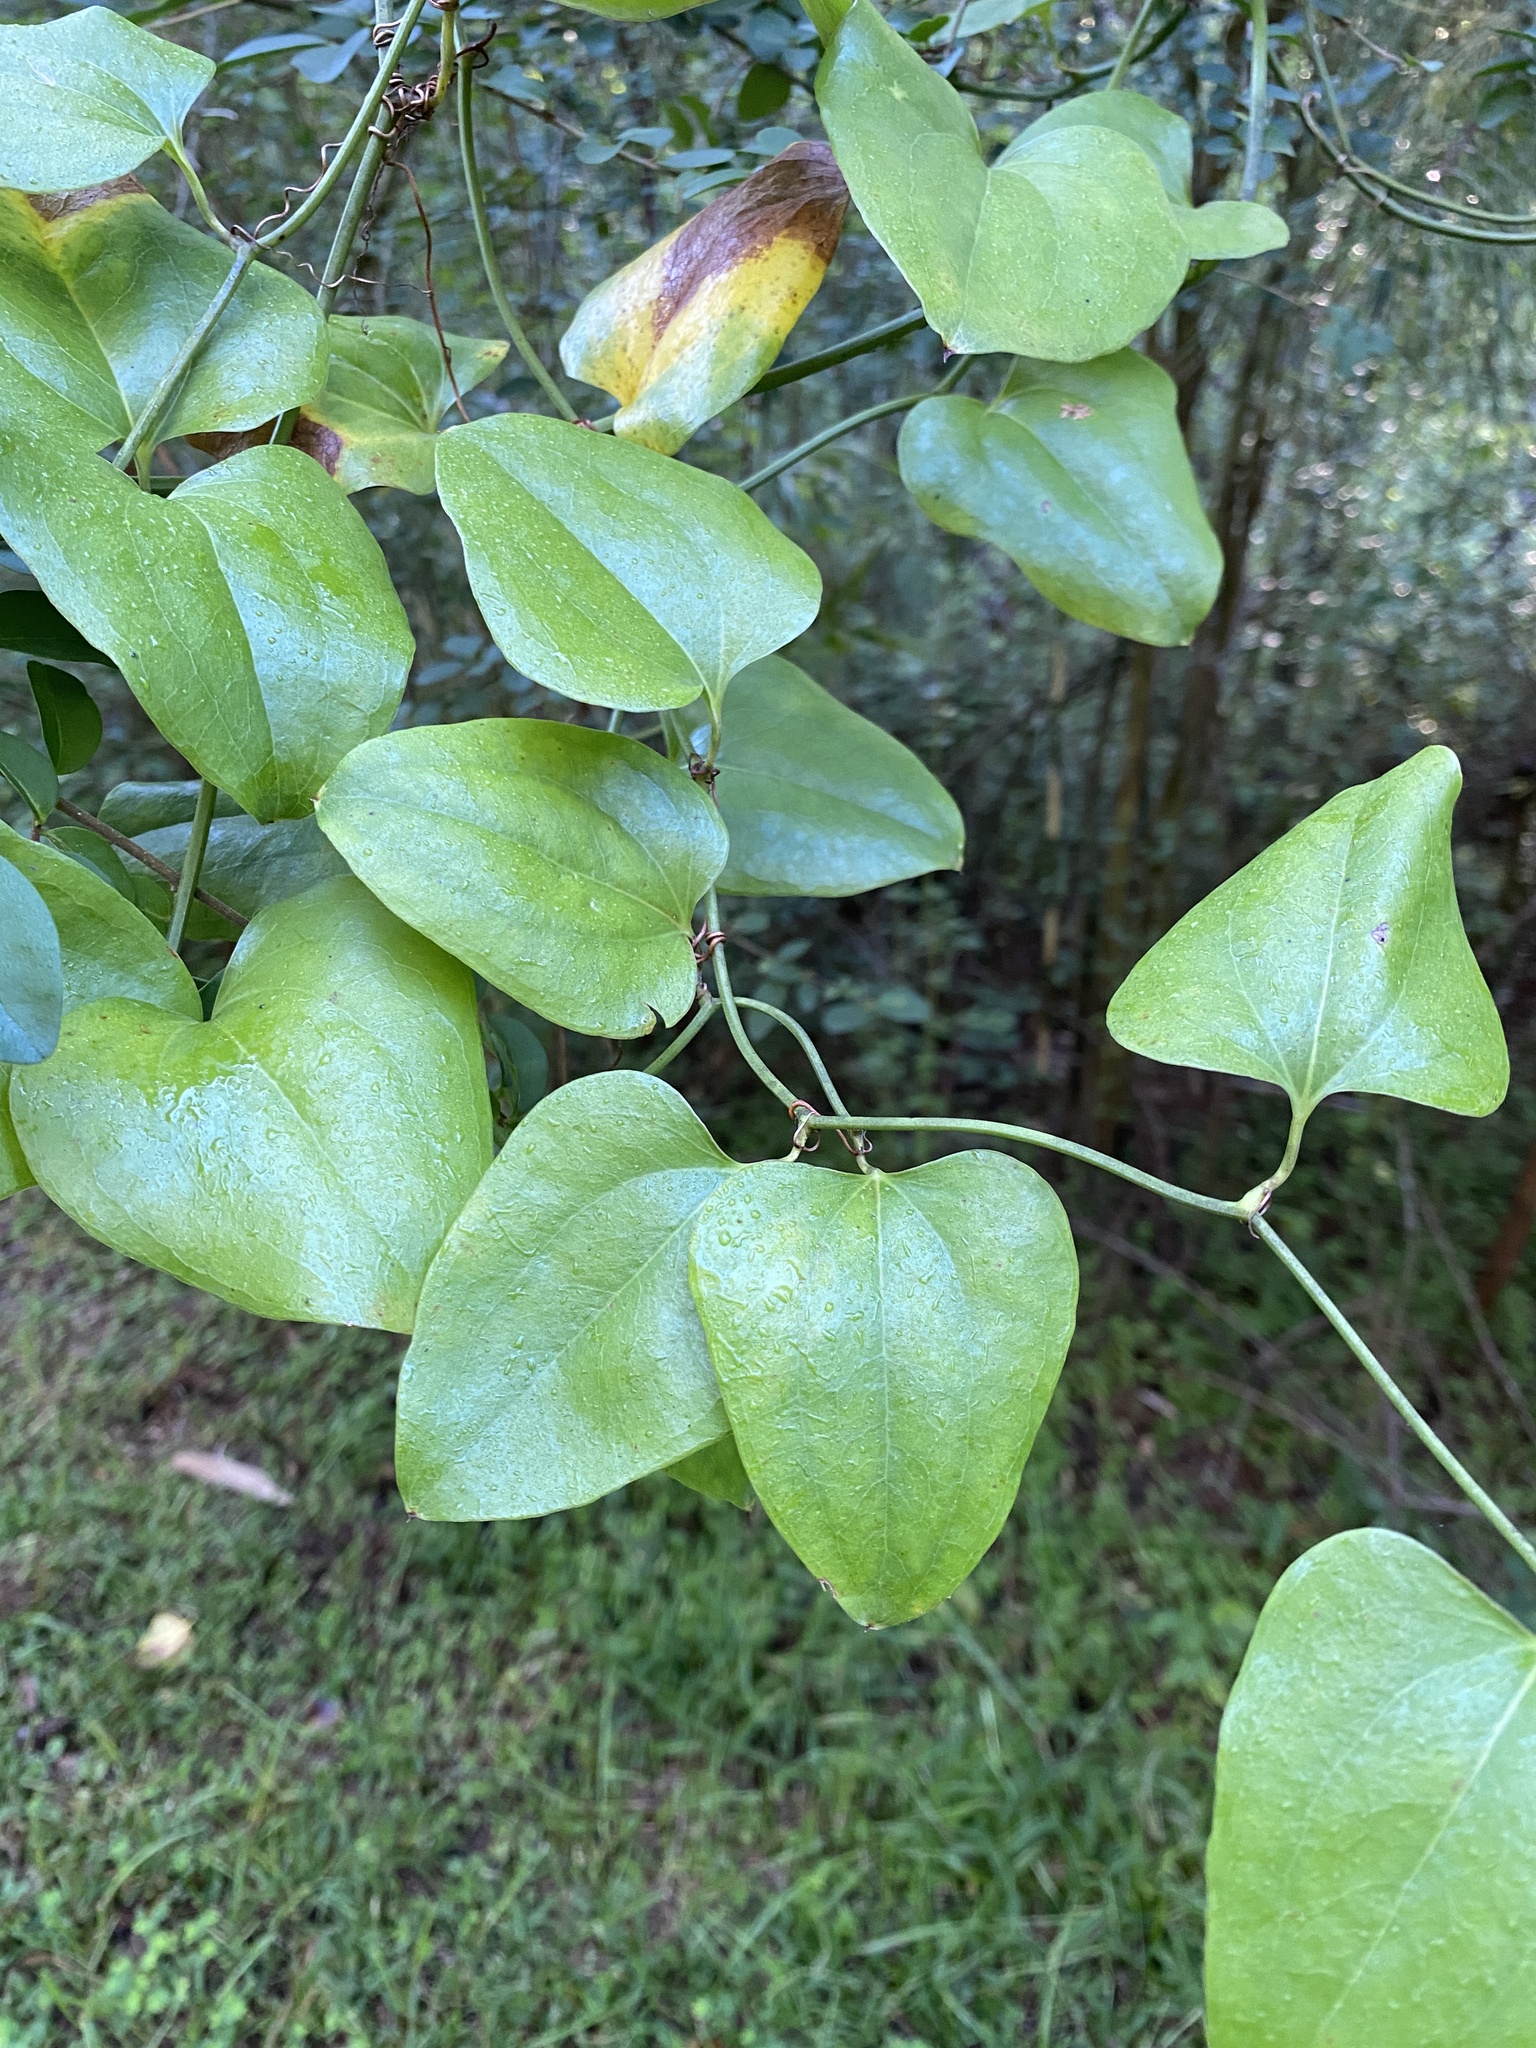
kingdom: Plantae
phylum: Tracheophyta
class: Liliopsida
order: Liliales
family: Smilacaceae
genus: Smilax
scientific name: Smilax rotundifolia
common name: Bullbriar
